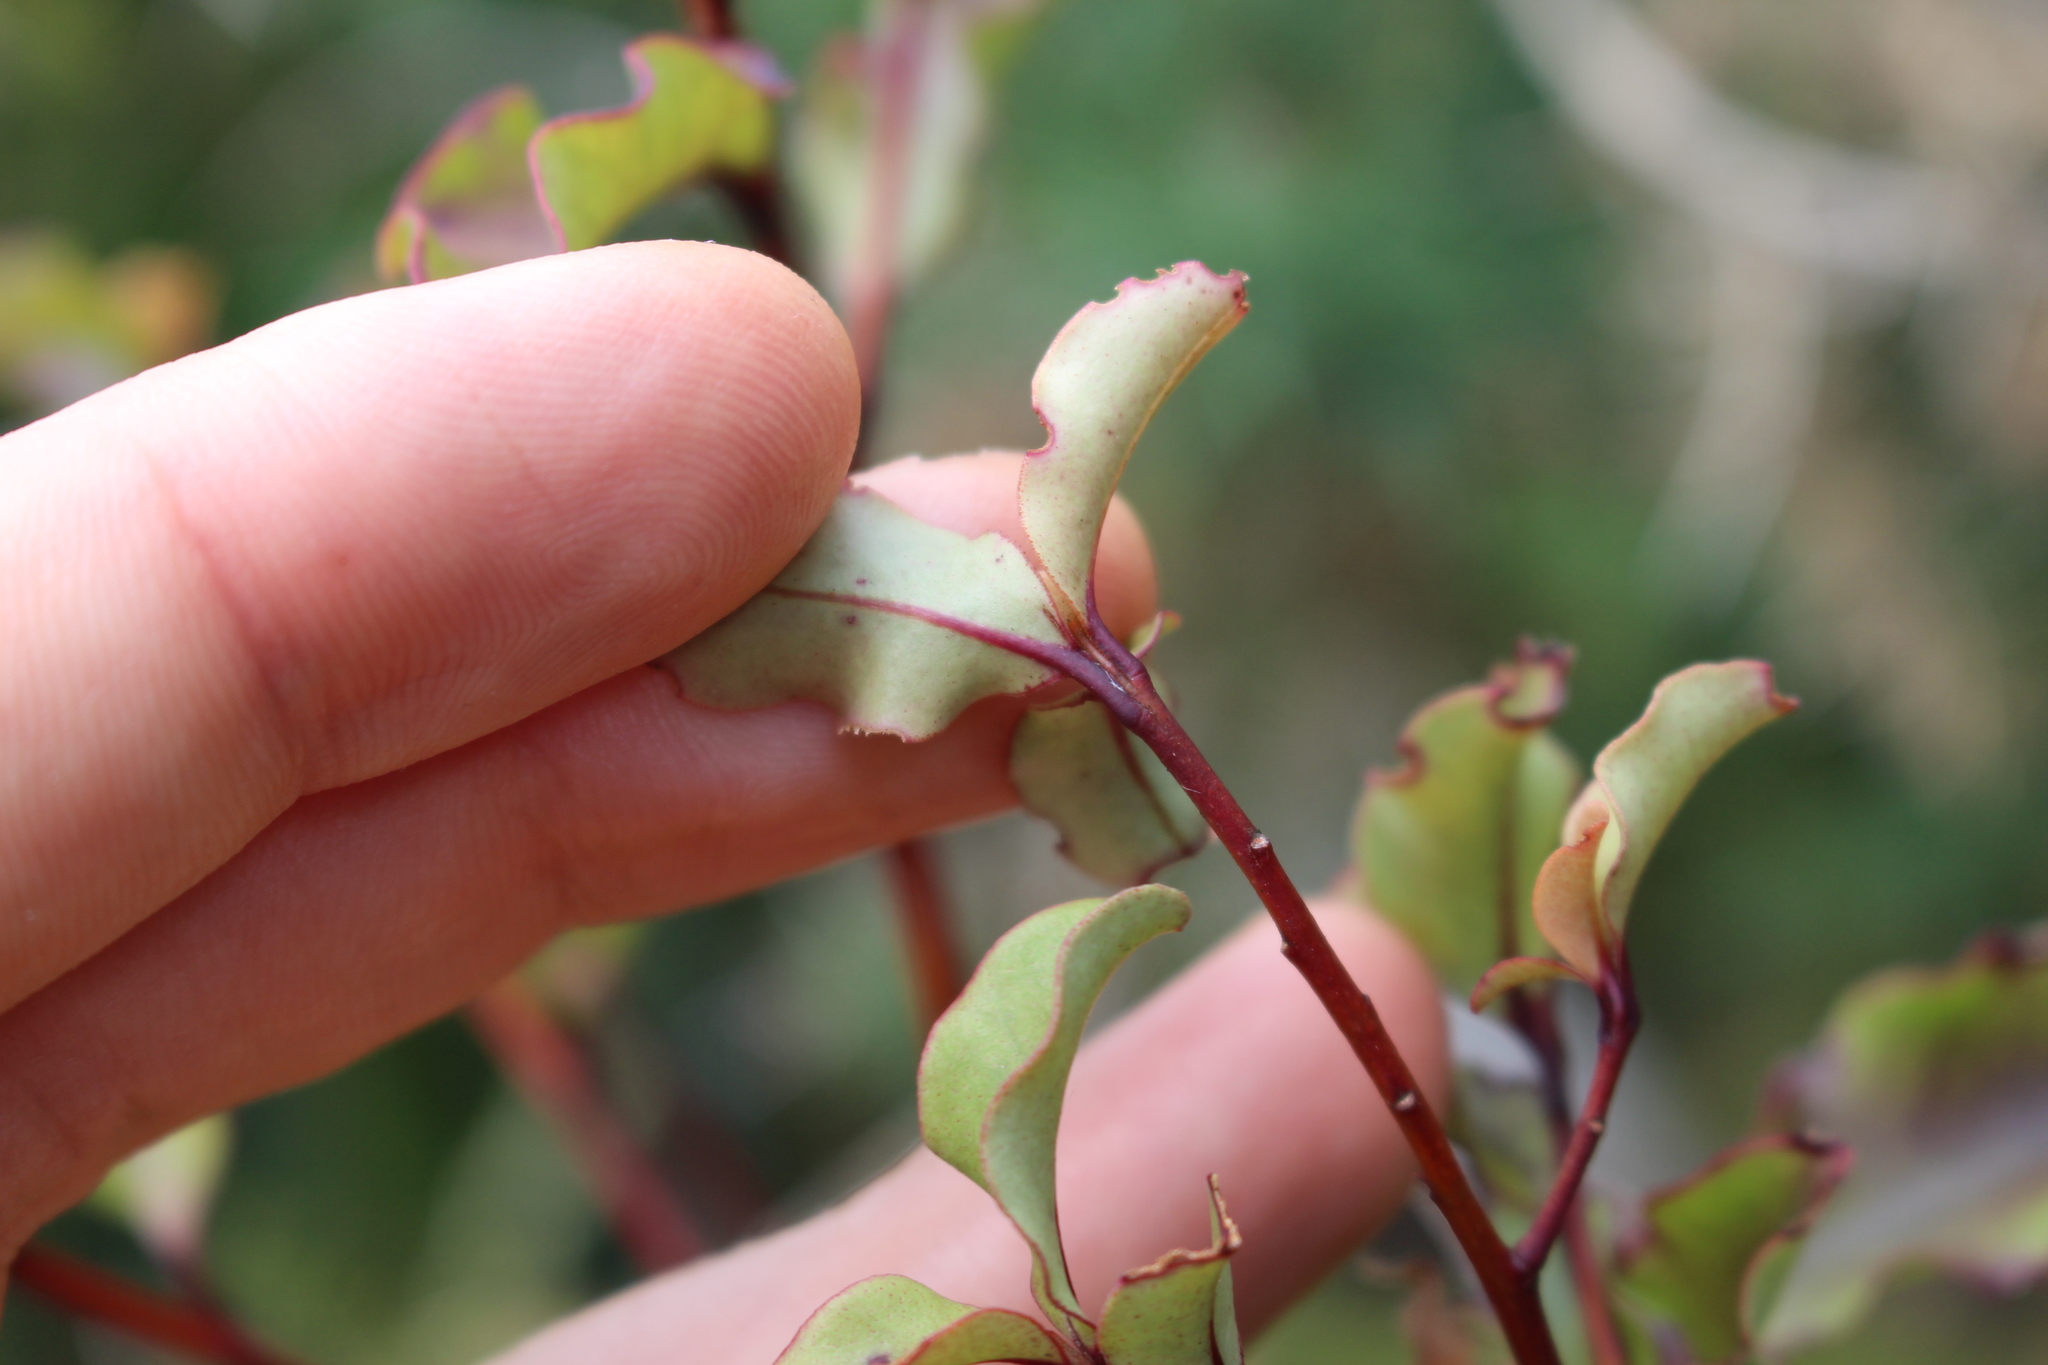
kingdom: Plantae
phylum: Tracheophyta
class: Magnoliopsida
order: Ericales
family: Primulaceae
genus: Myrsine
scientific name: Myrsine australis
